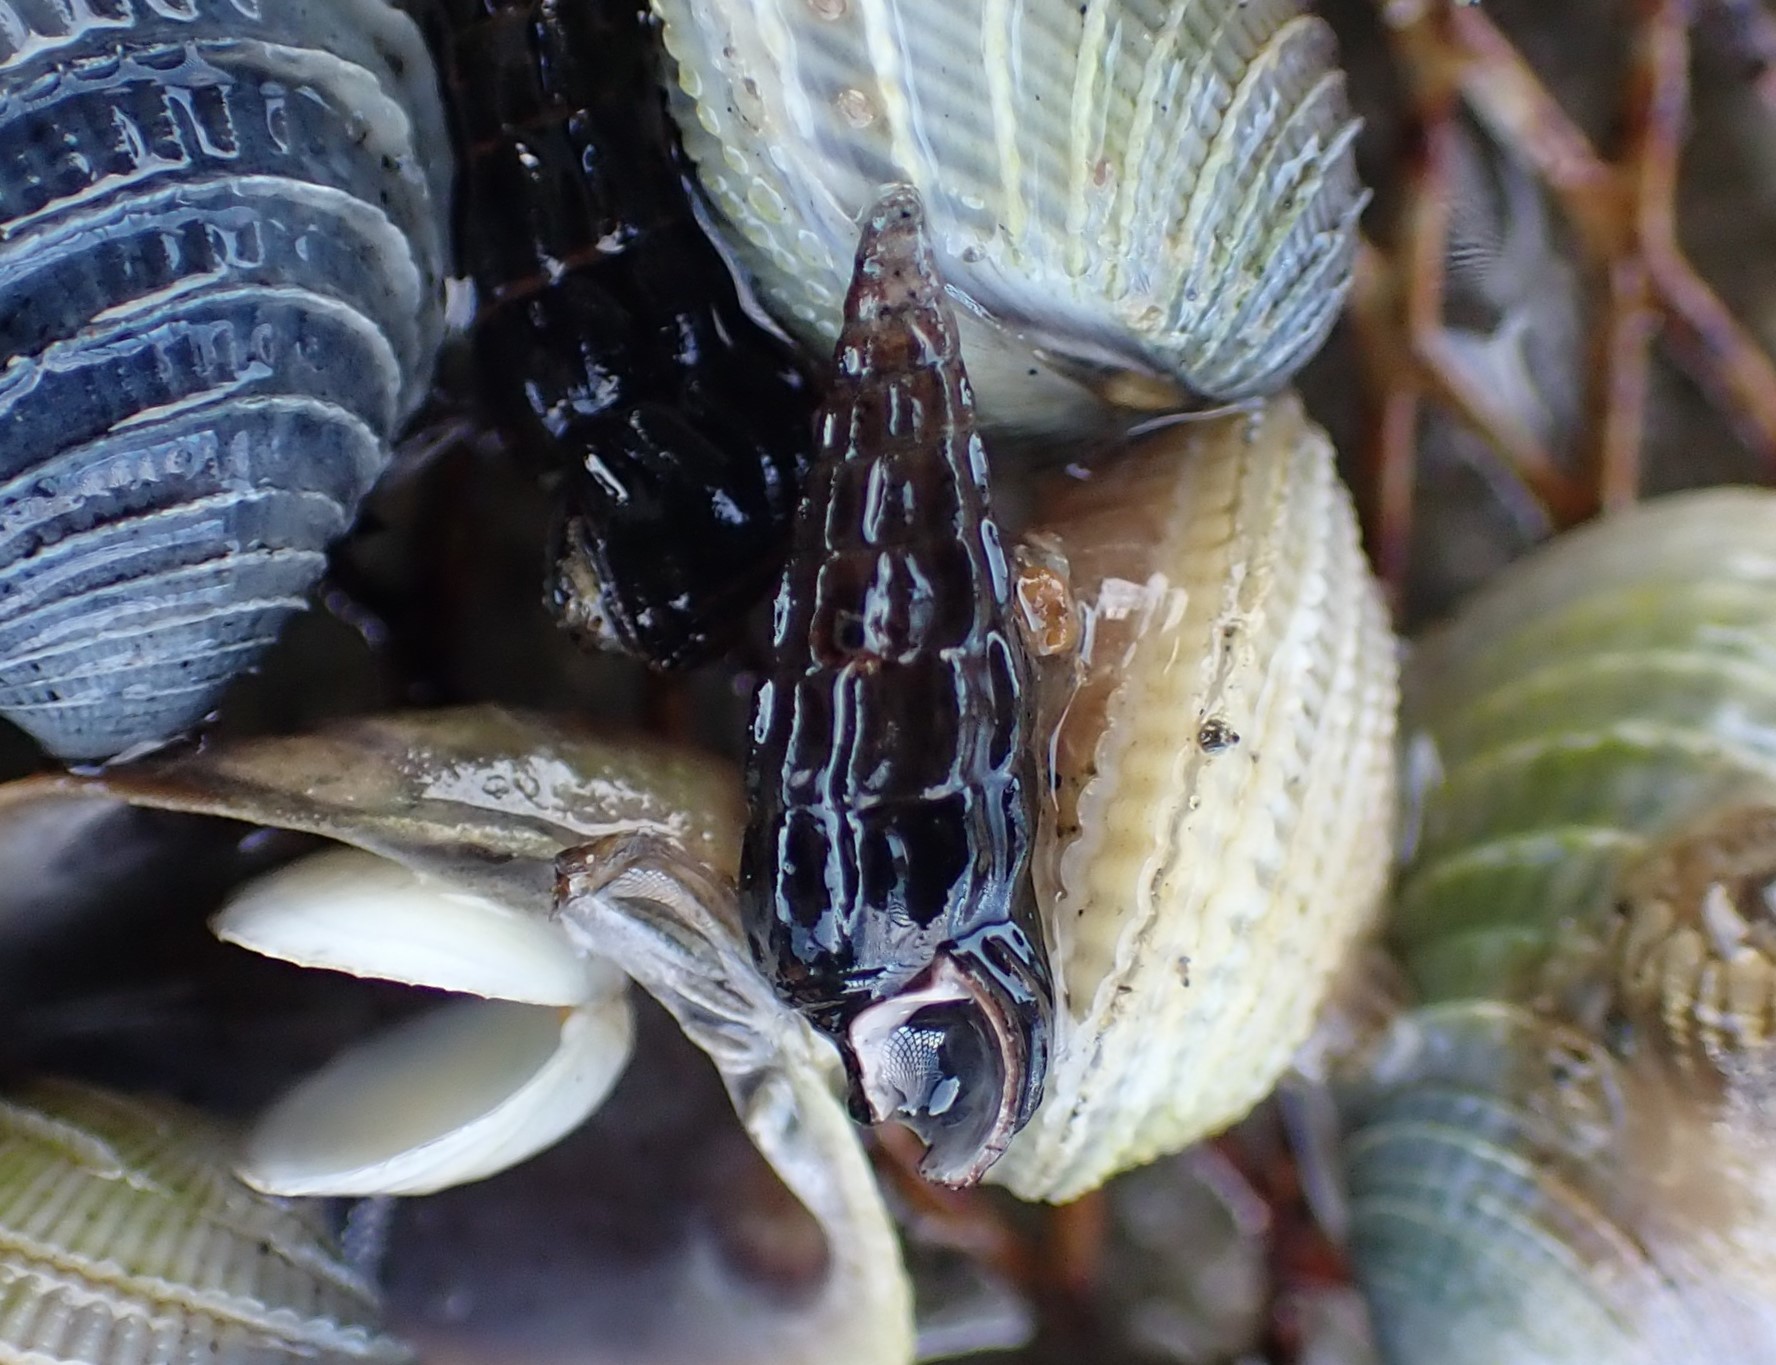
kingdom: Animalia
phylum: Mollusca
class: Gastropoda
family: Batillariidae
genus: Zeacumantus
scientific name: Zeacumantus subcarinatus
